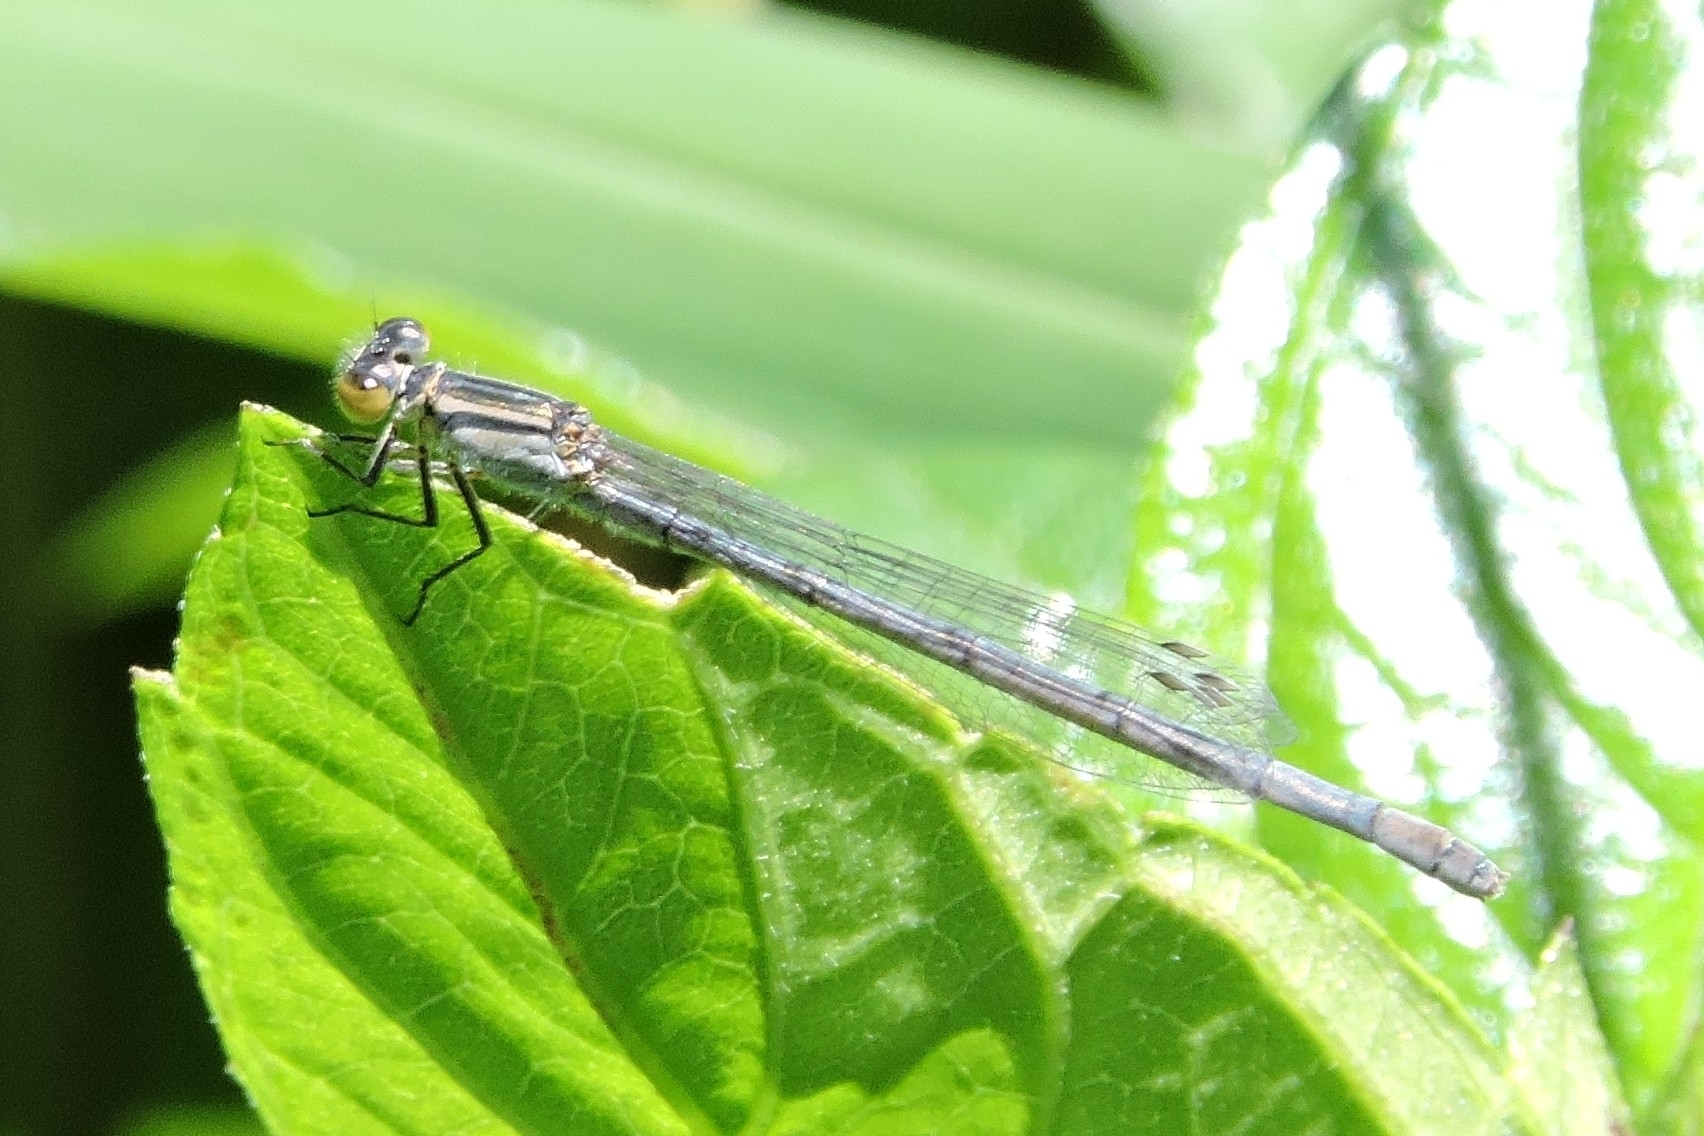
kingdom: Animalia
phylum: Arthropoda
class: Insecta
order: Odonata
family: Coenagrionidae
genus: Ischnura
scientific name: Ischnura heterosticta
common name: Common bluetail
